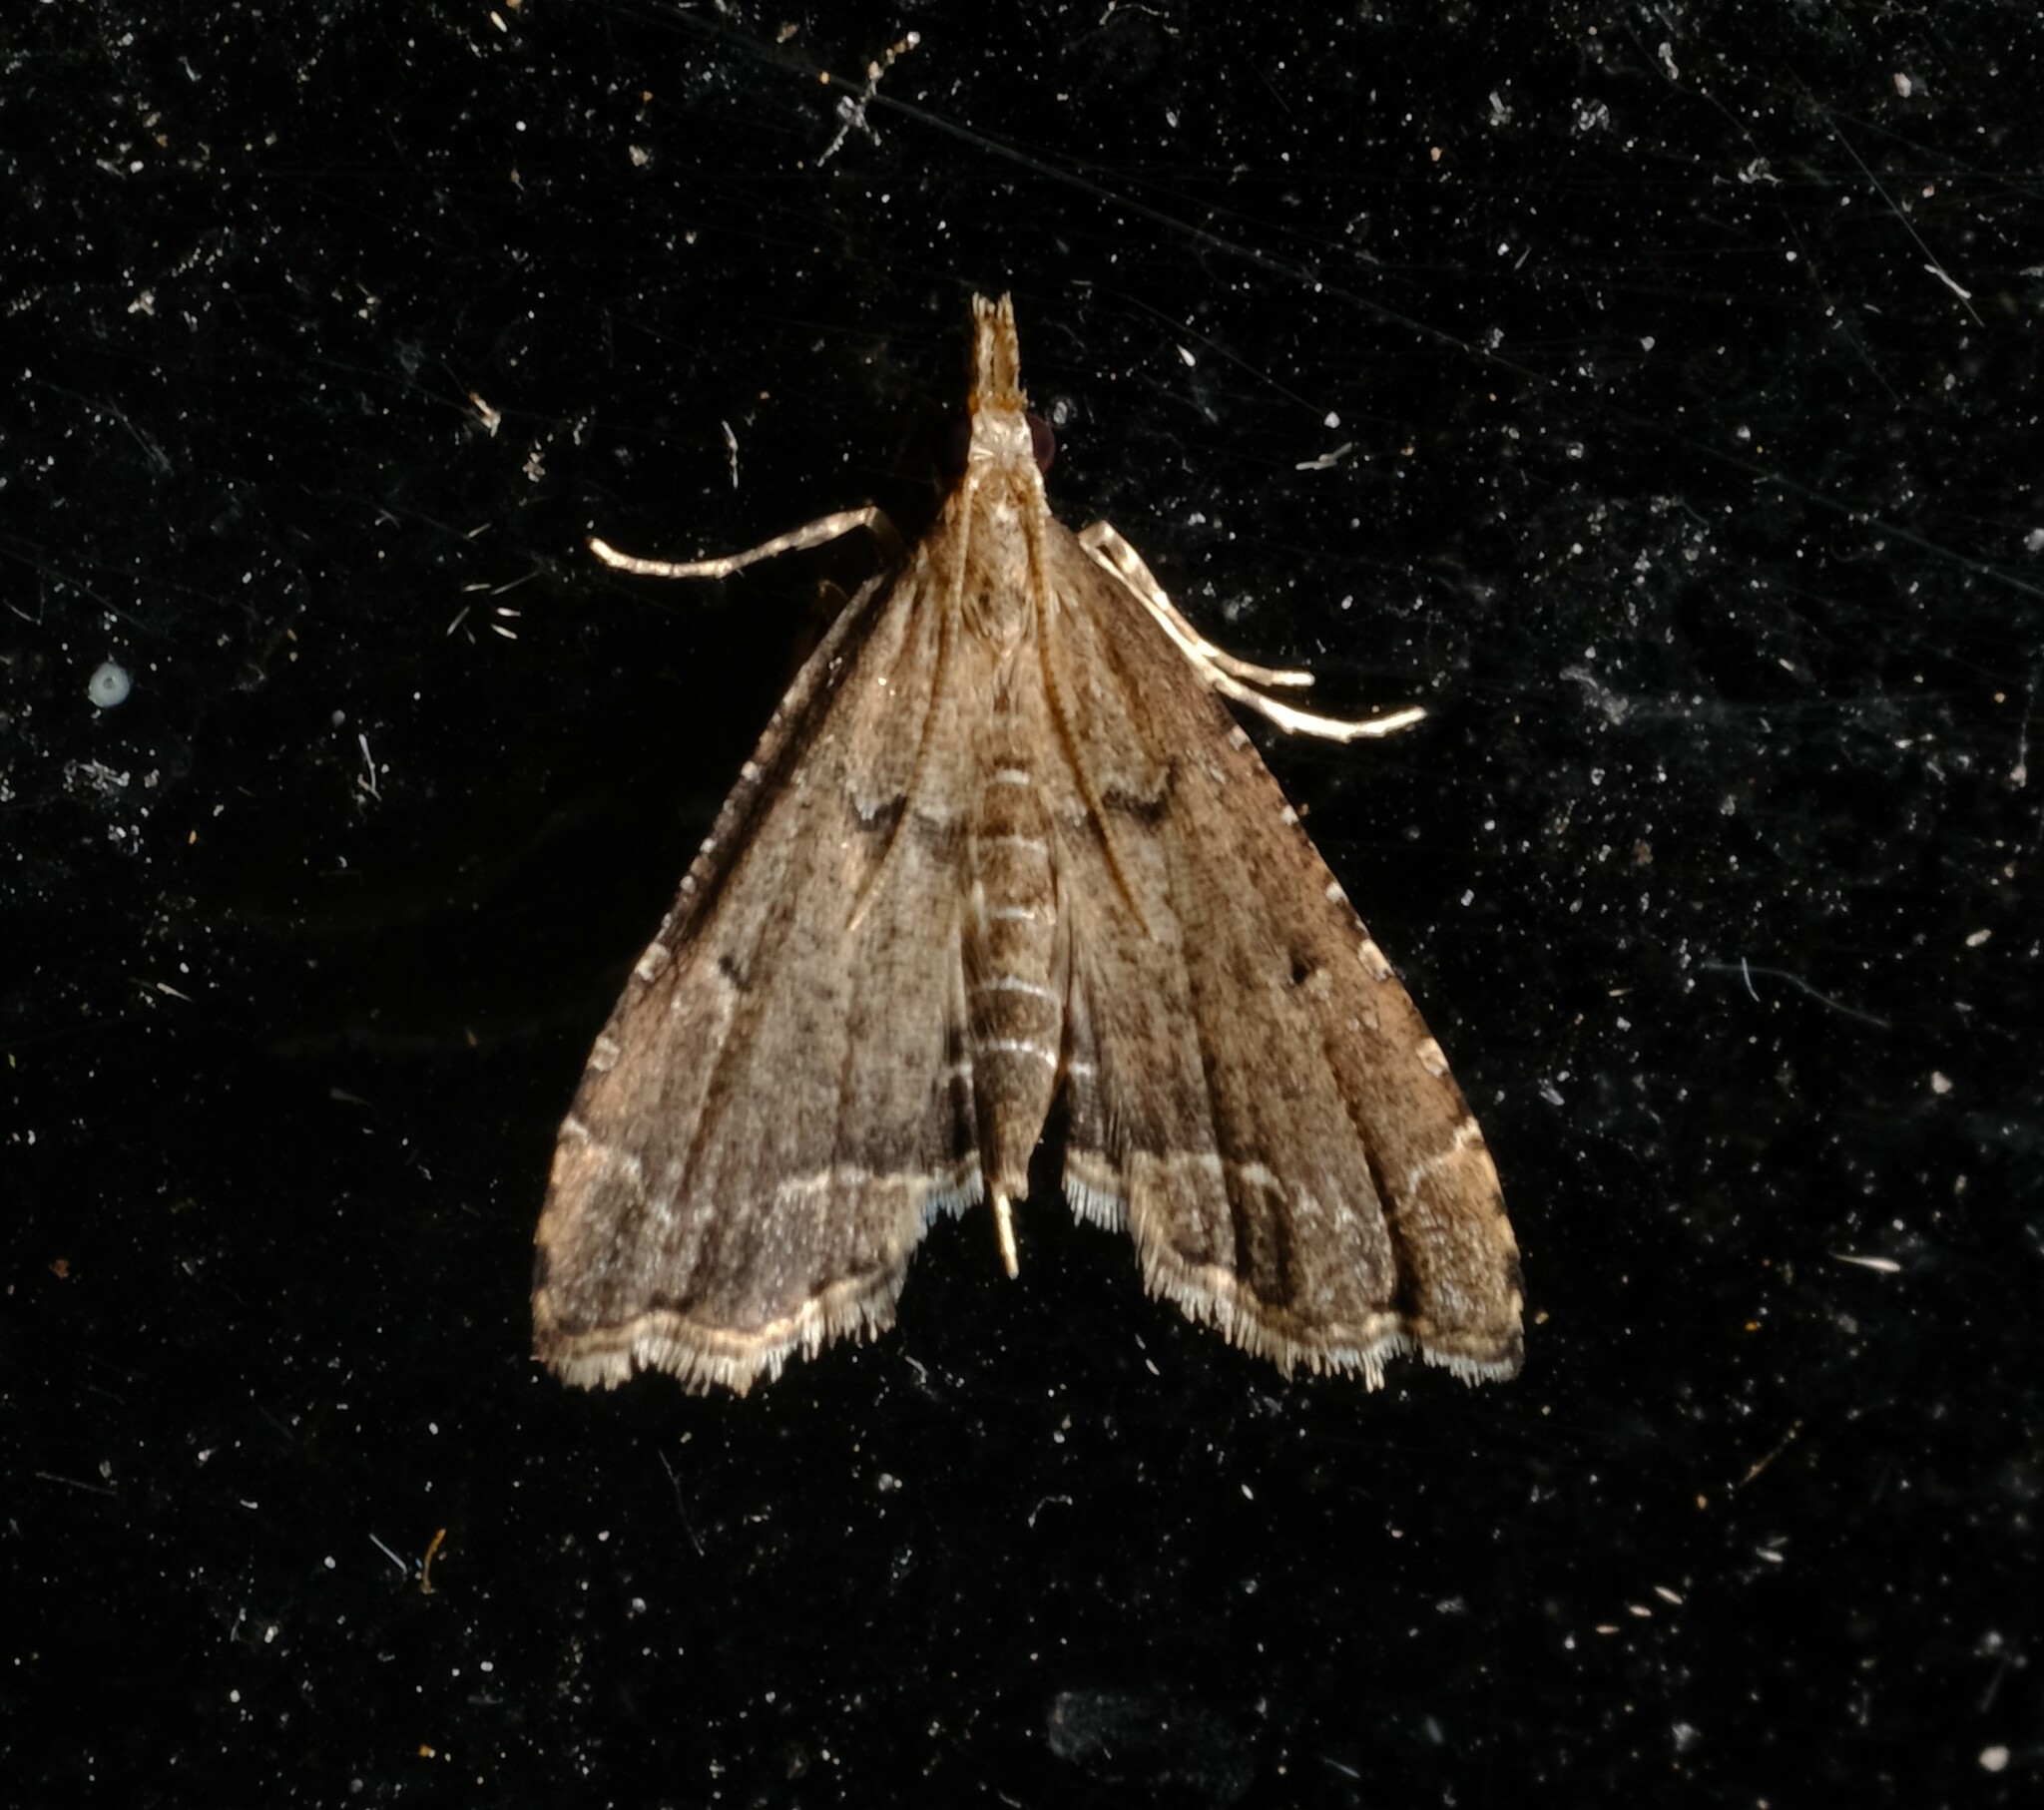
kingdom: Animalia
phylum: Arthropoda
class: Insecta
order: Lepidoptera
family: Crambidae
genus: Diplopseustis
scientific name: Diplopseustis perieresalis
